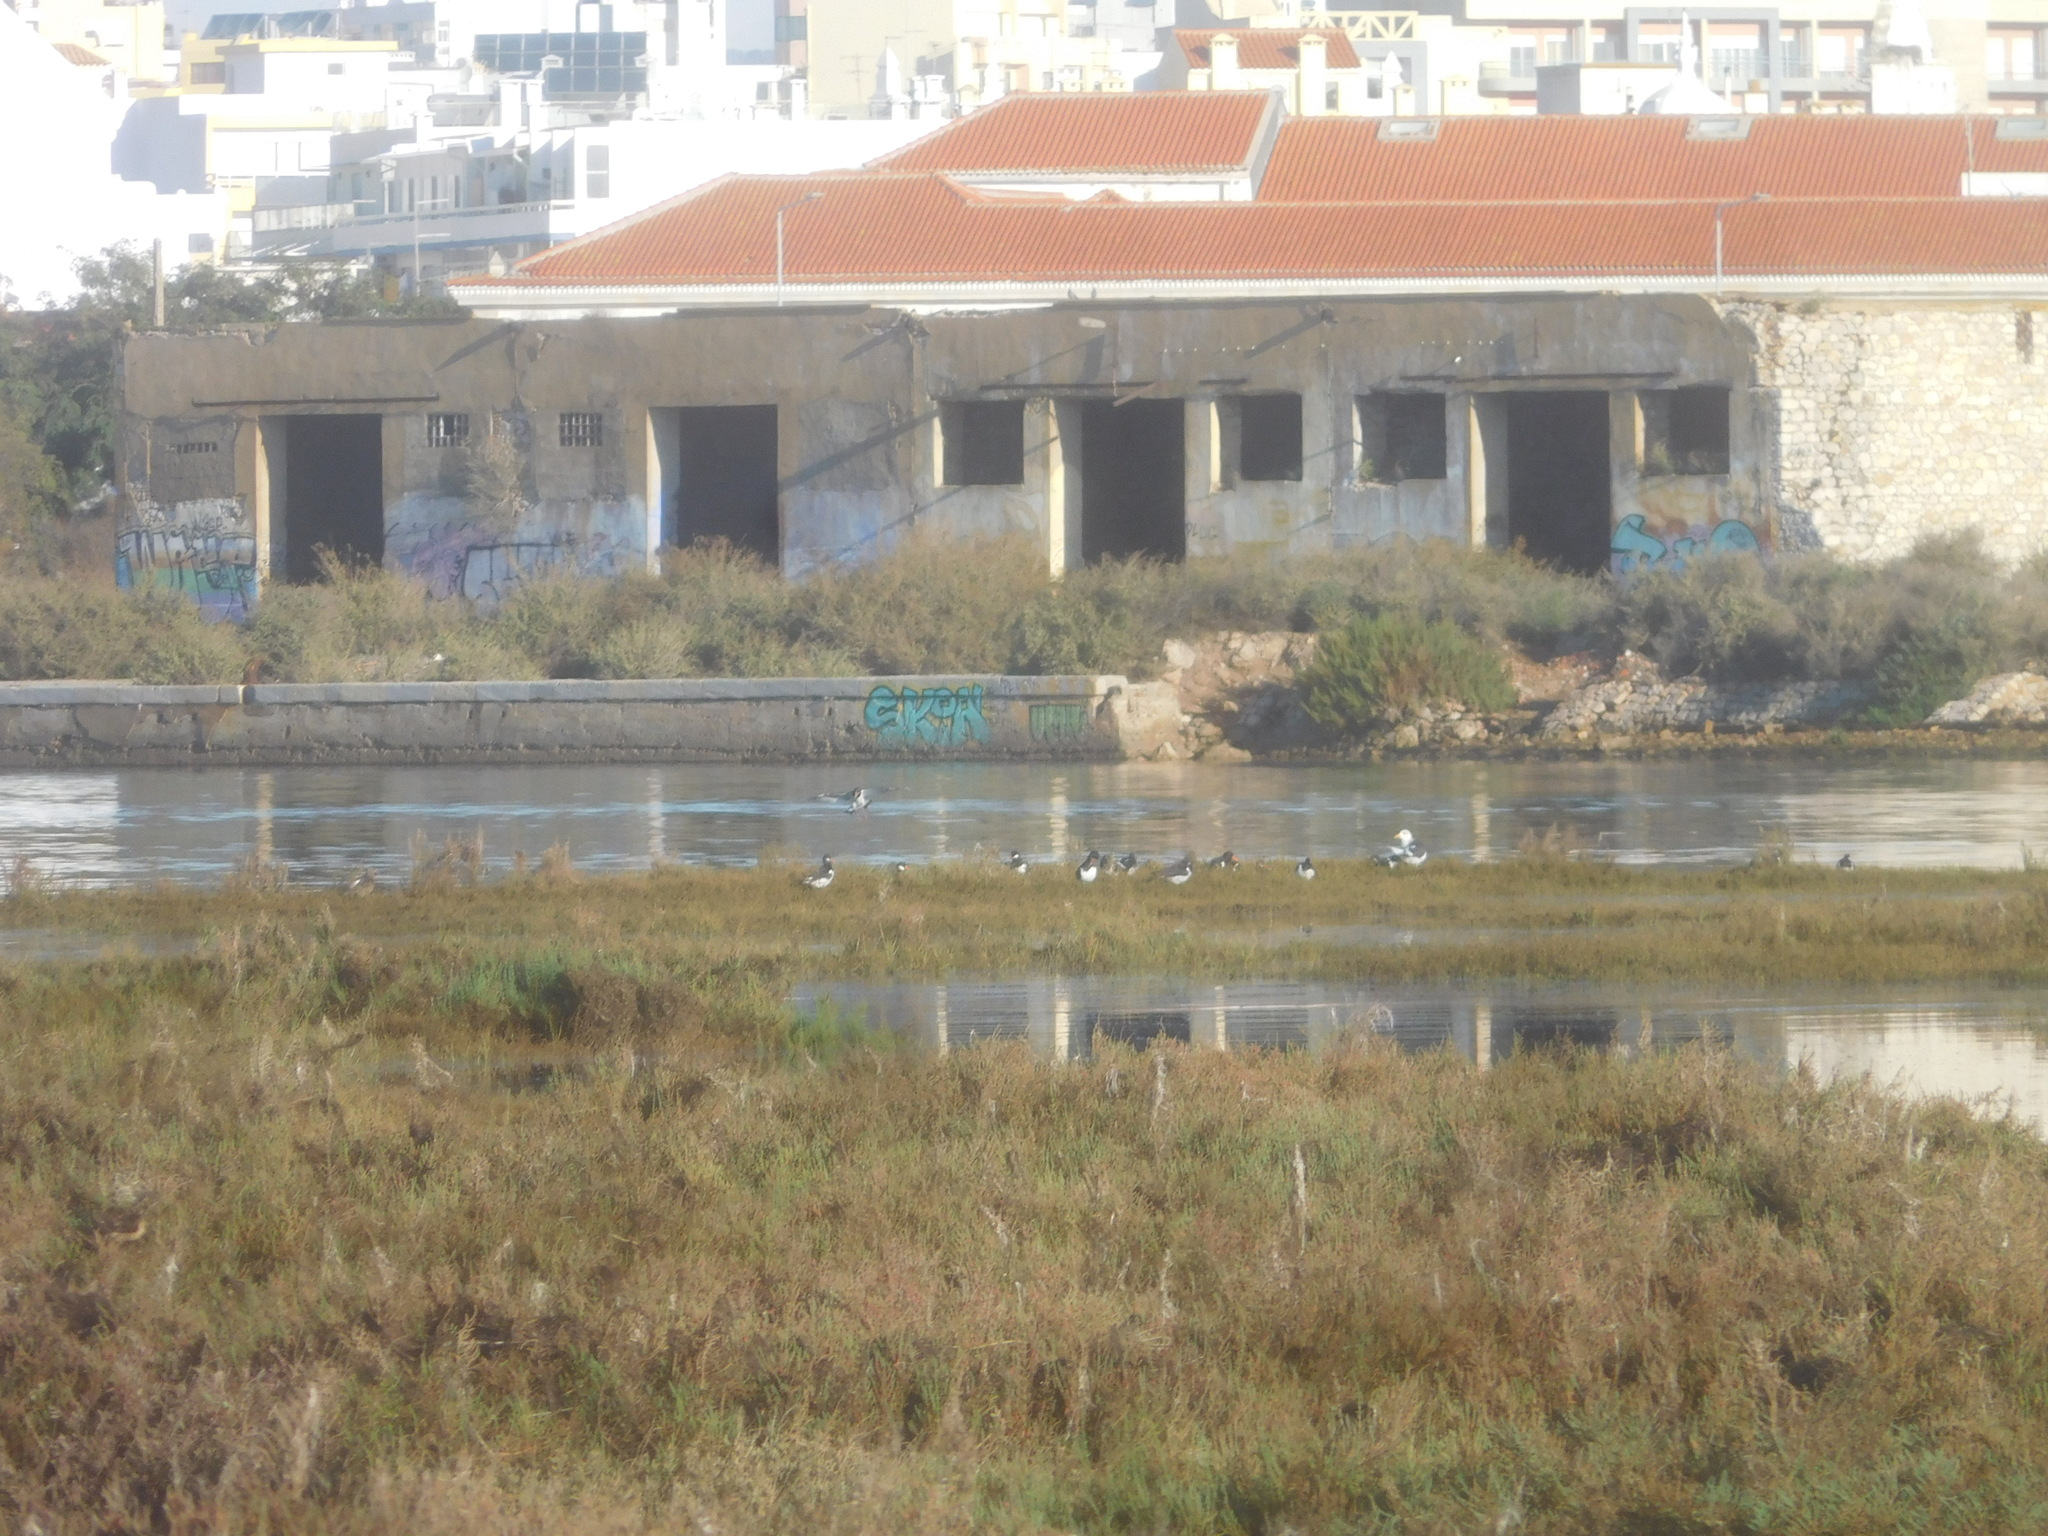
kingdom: Animalia
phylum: Chordata
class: Aves
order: Charadriiformes
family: Haematopodidae
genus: Haematopus
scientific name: Haematopus ostralegus
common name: Eurasian oystercatcher
